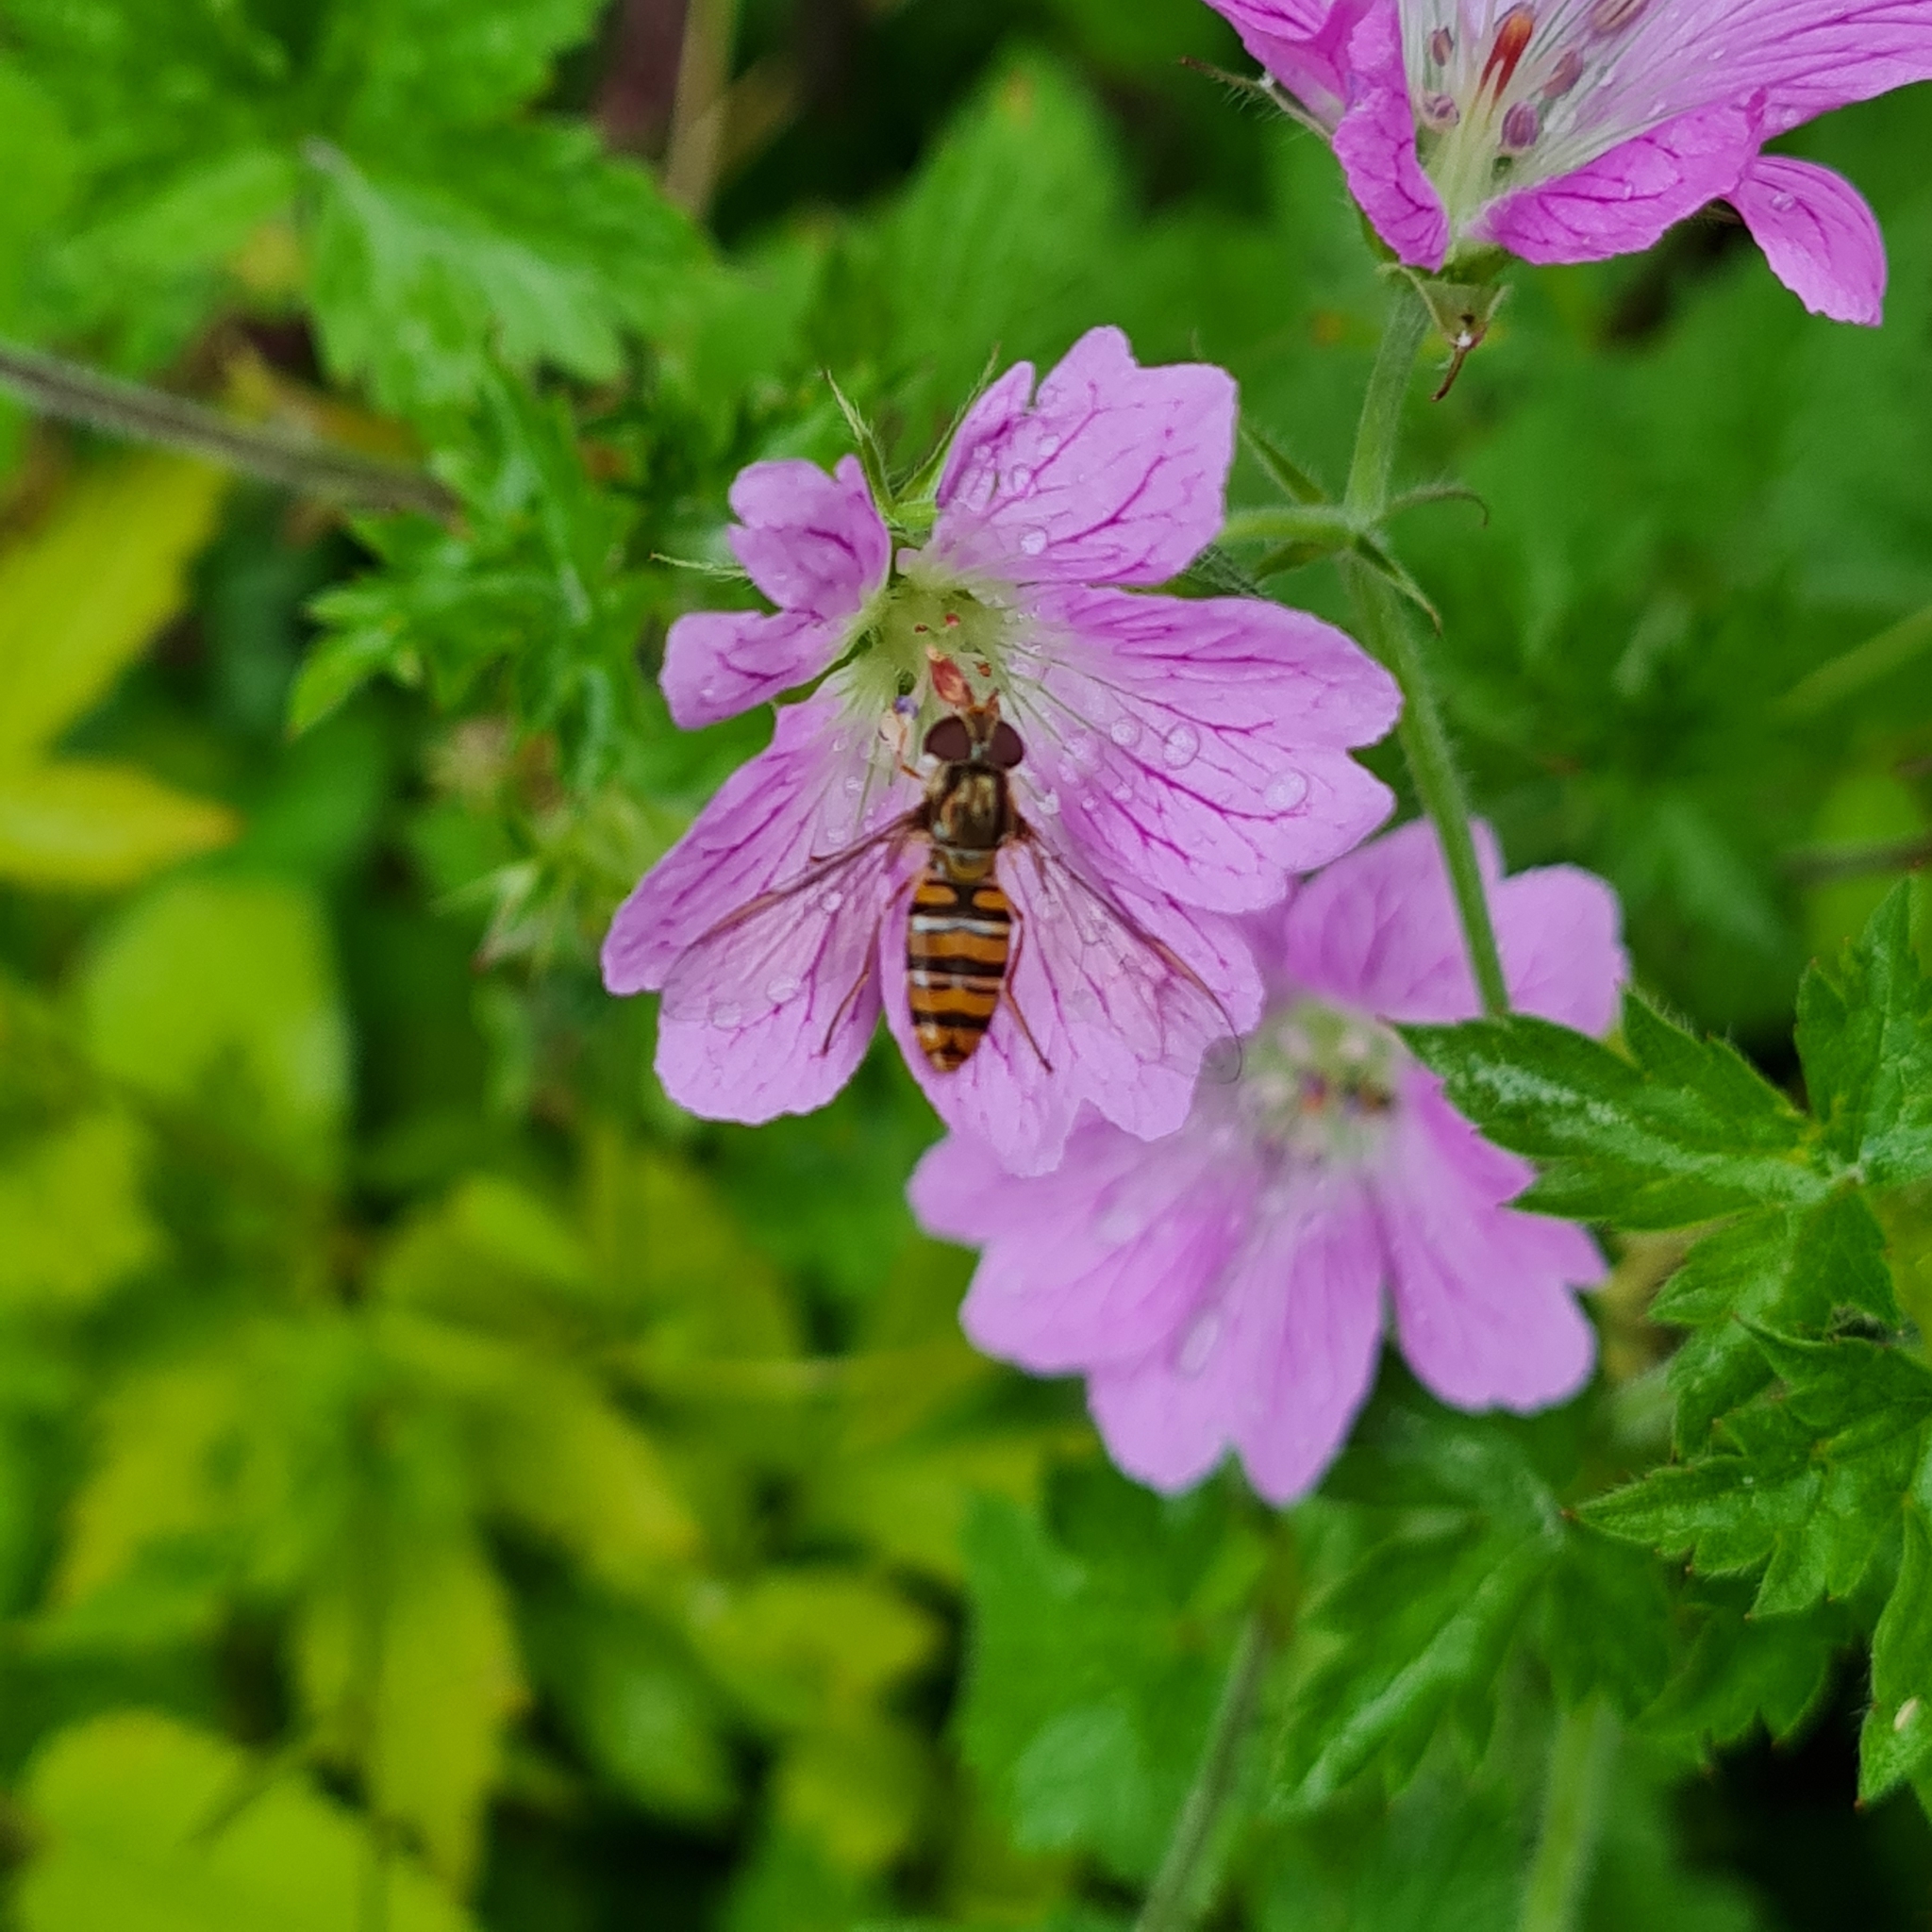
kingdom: Animalia
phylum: Arthropoda
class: Insecta
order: Diptera
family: Syrphidae
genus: Episyrphus
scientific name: Episyrphus balteatus
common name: Marmalade hoverfly
